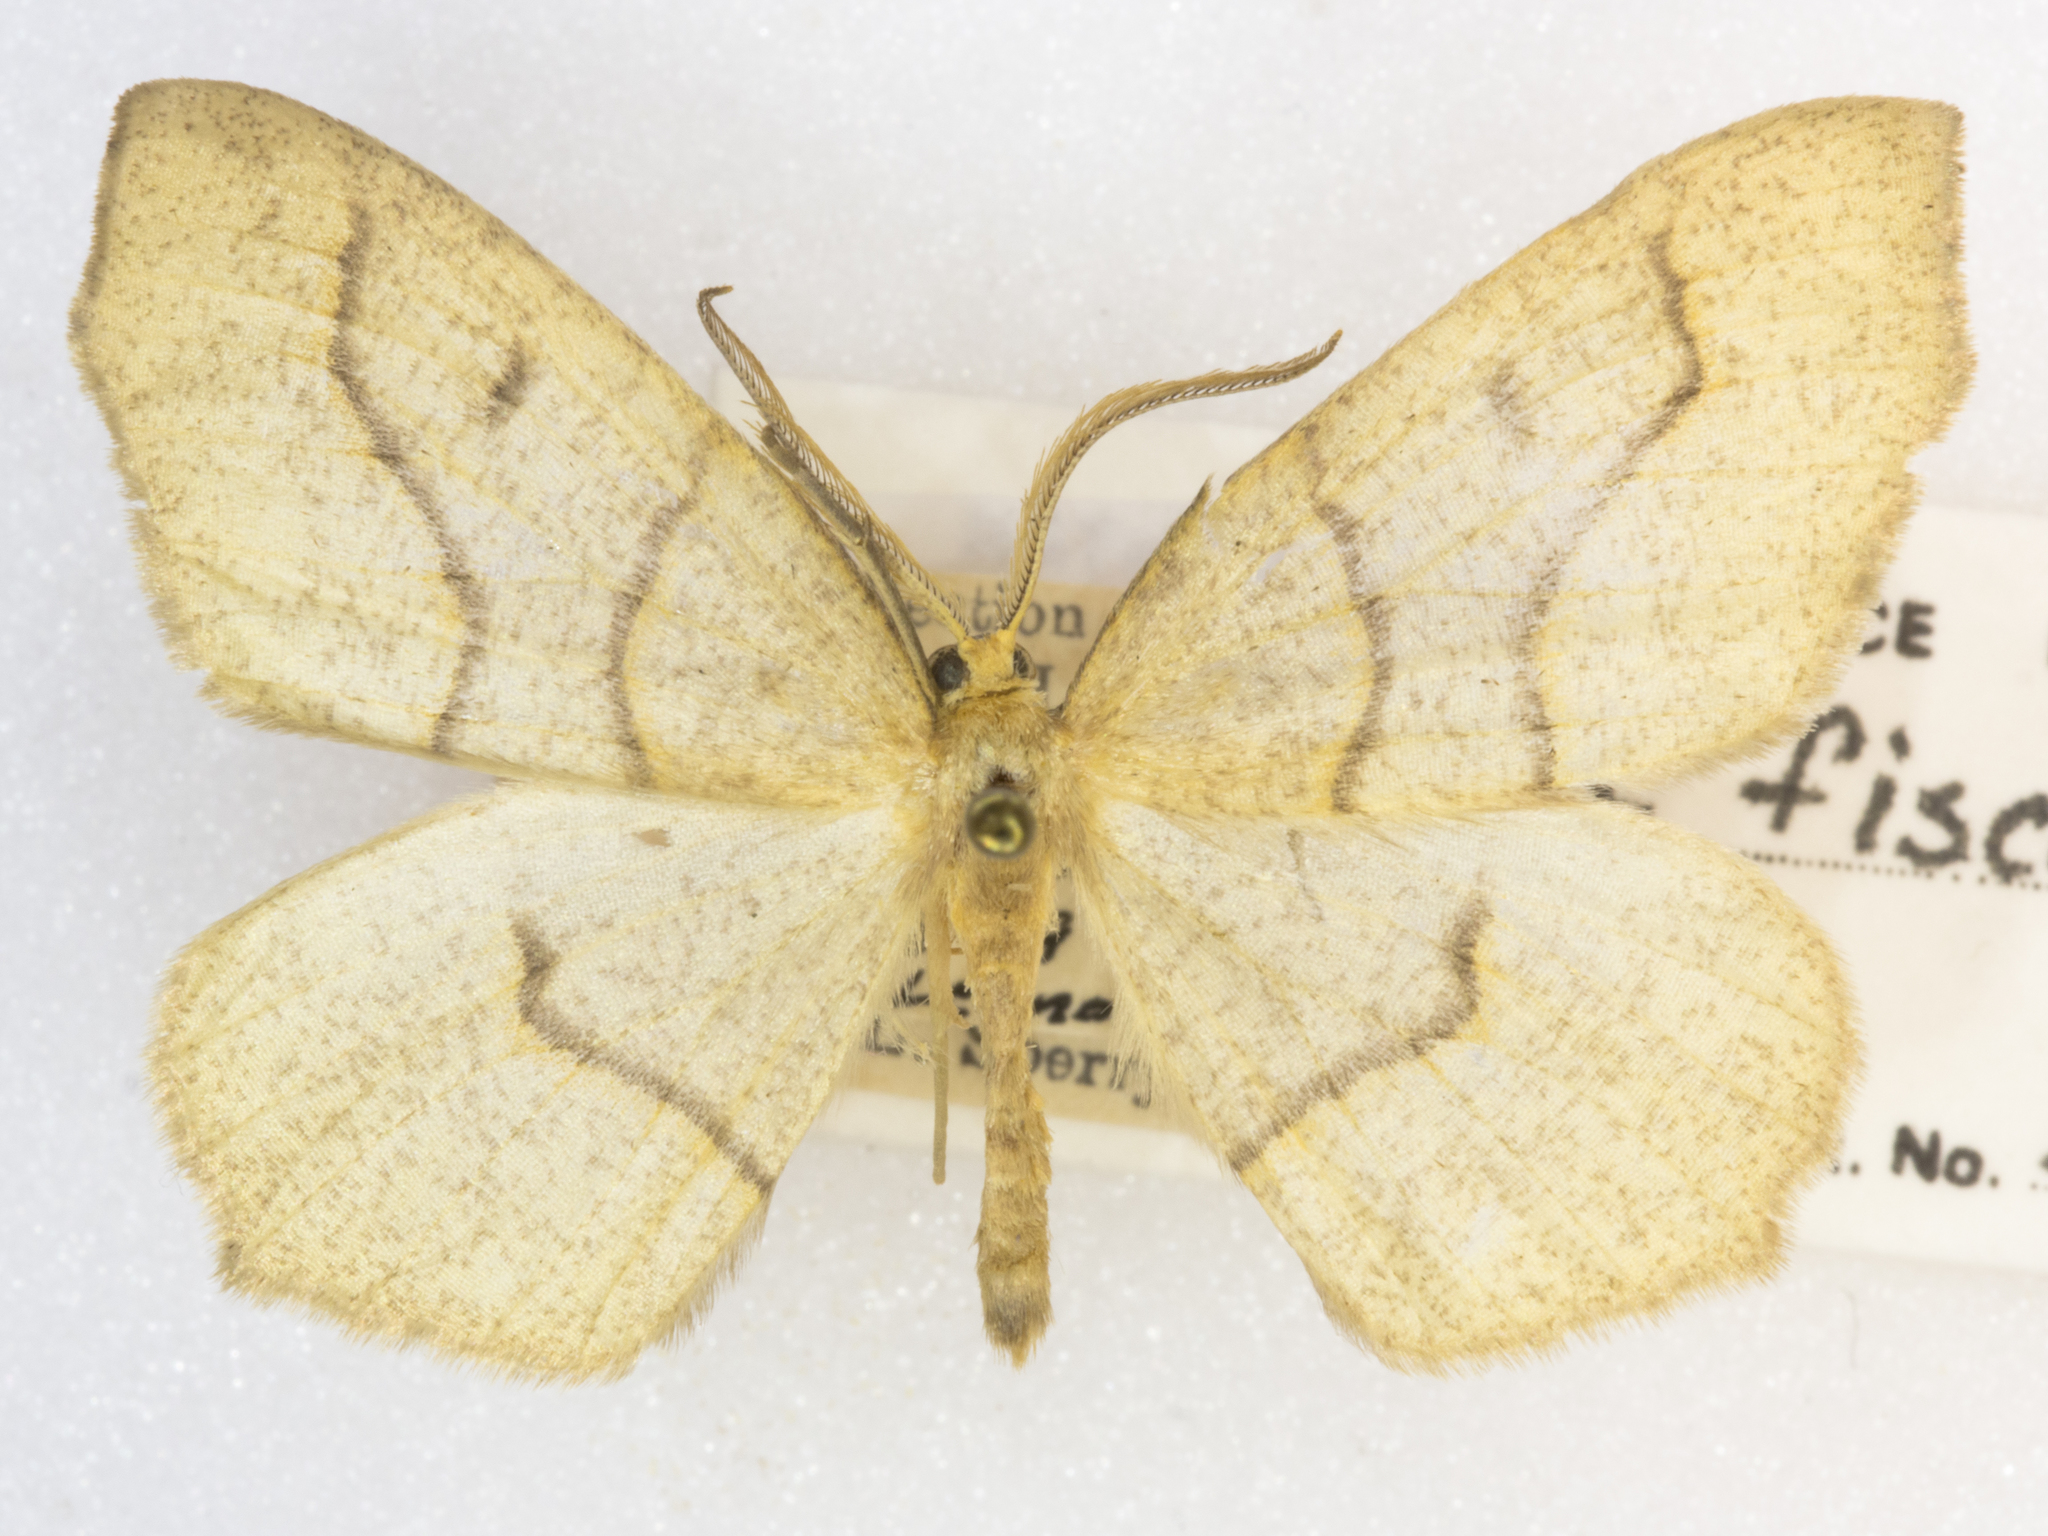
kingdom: Animalia
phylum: Arthropoda
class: Insecta
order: Lepidoptera
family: Geometridae
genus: Lambdina
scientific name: Lambdina fiscellaria
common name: Hemlock looper
